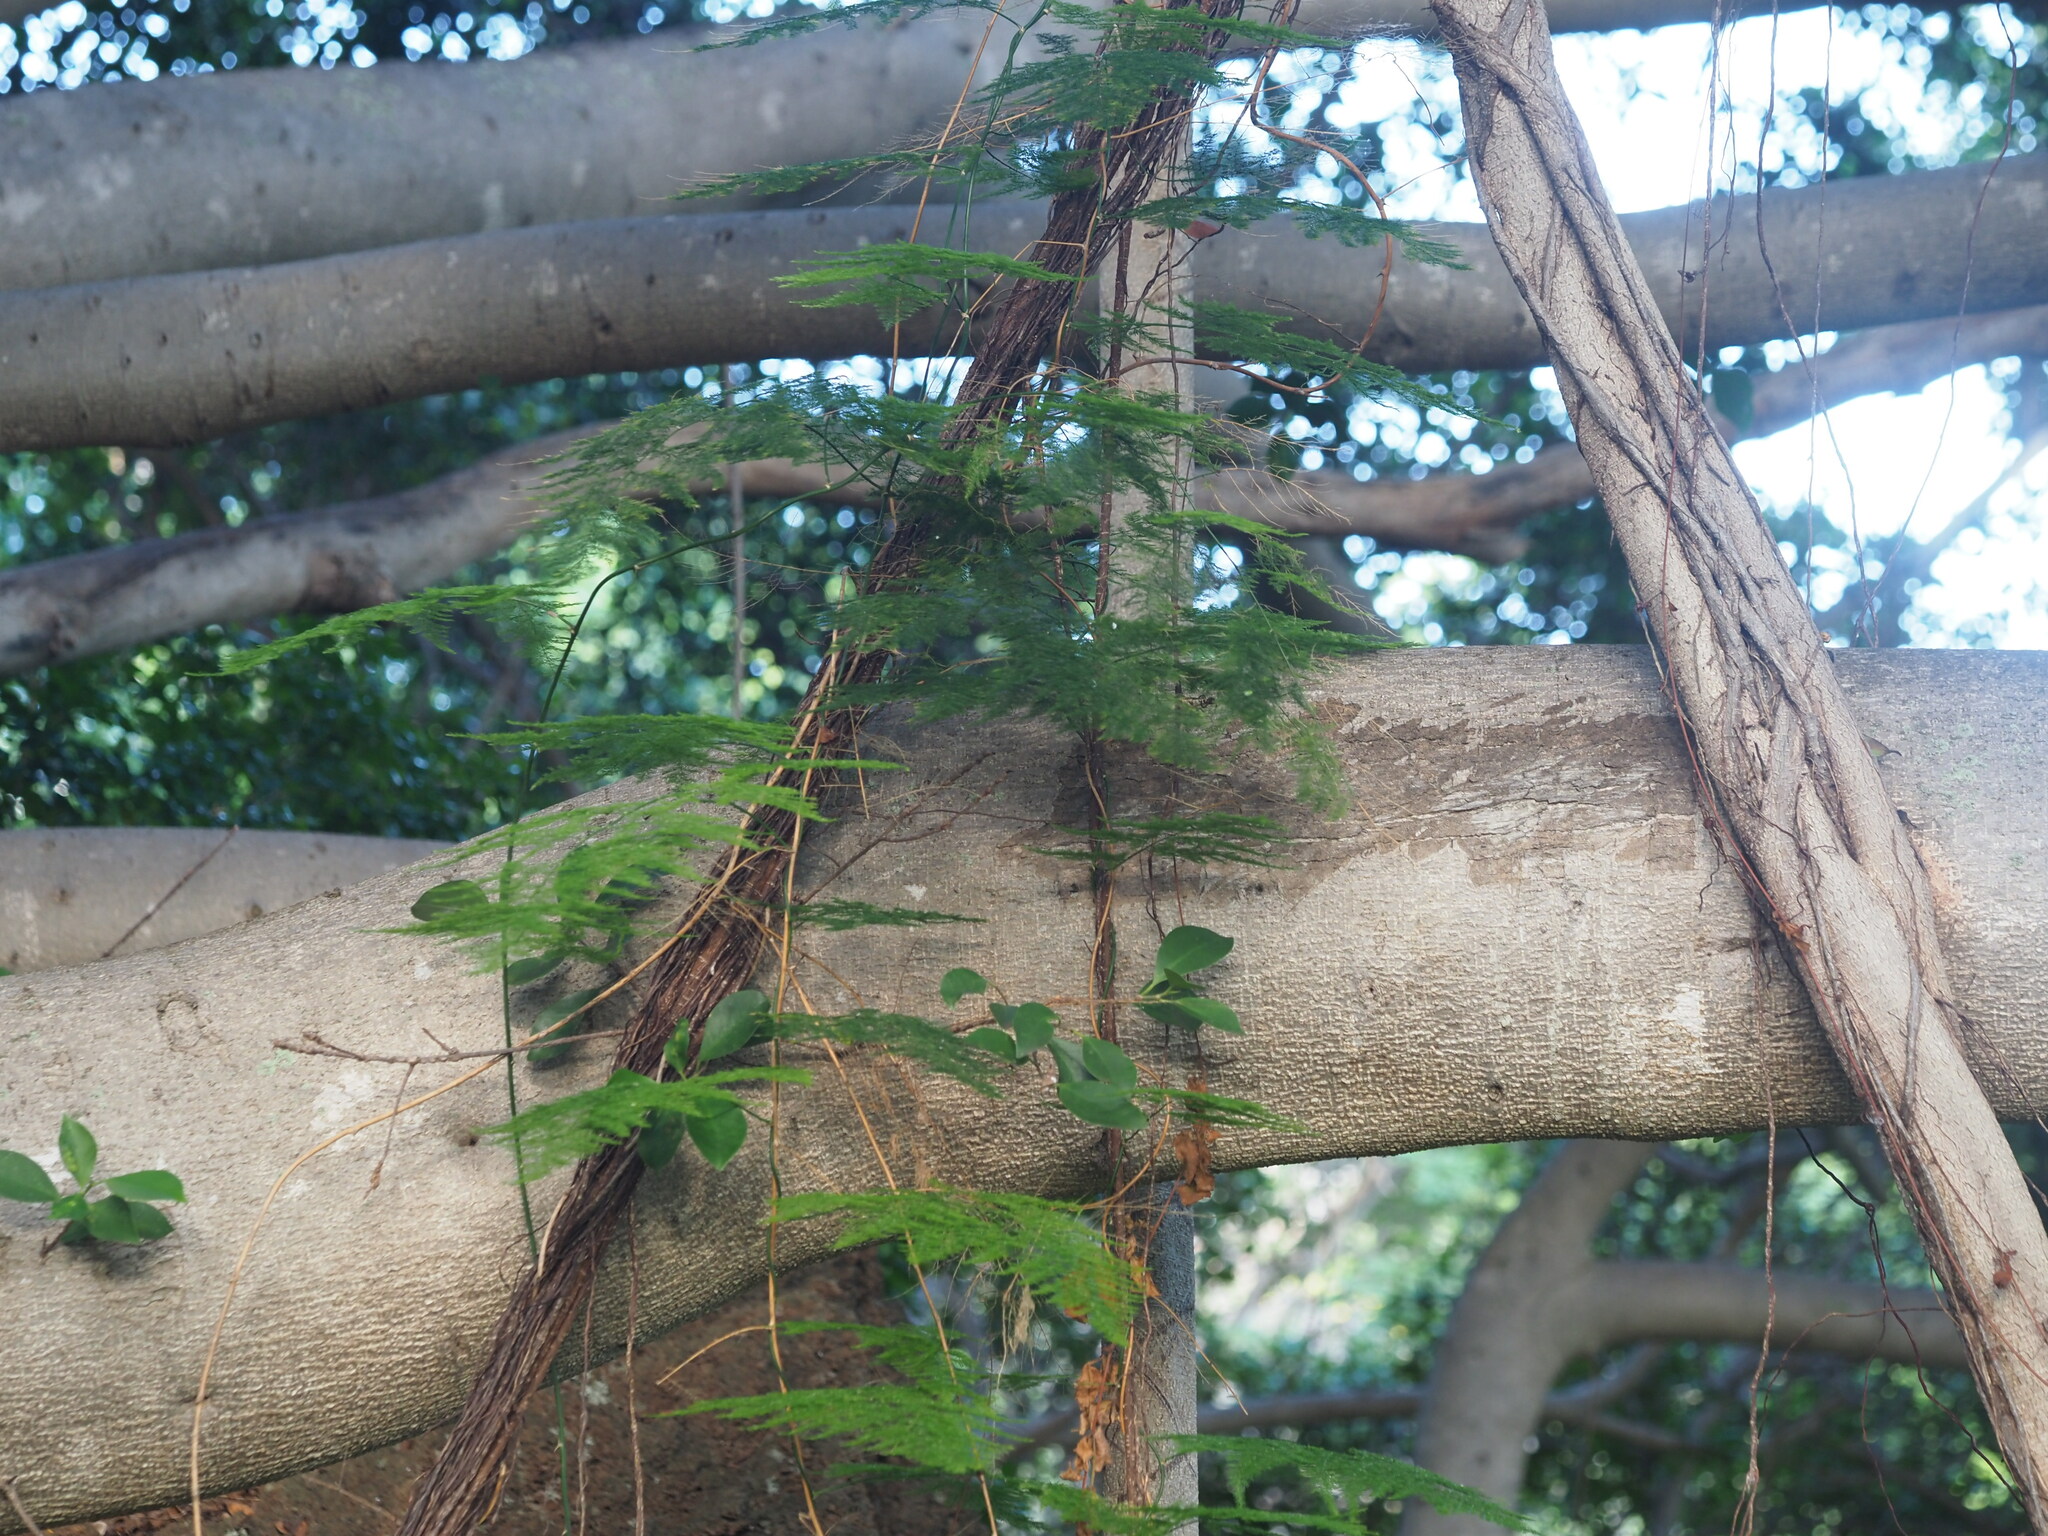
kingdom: Plantae
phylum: Tracheophyta
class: Liliopsida
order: Asparagales
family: Asparagaceae
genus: Asparagus
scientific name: Asparagus setaceus
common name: Common asparagus fern
